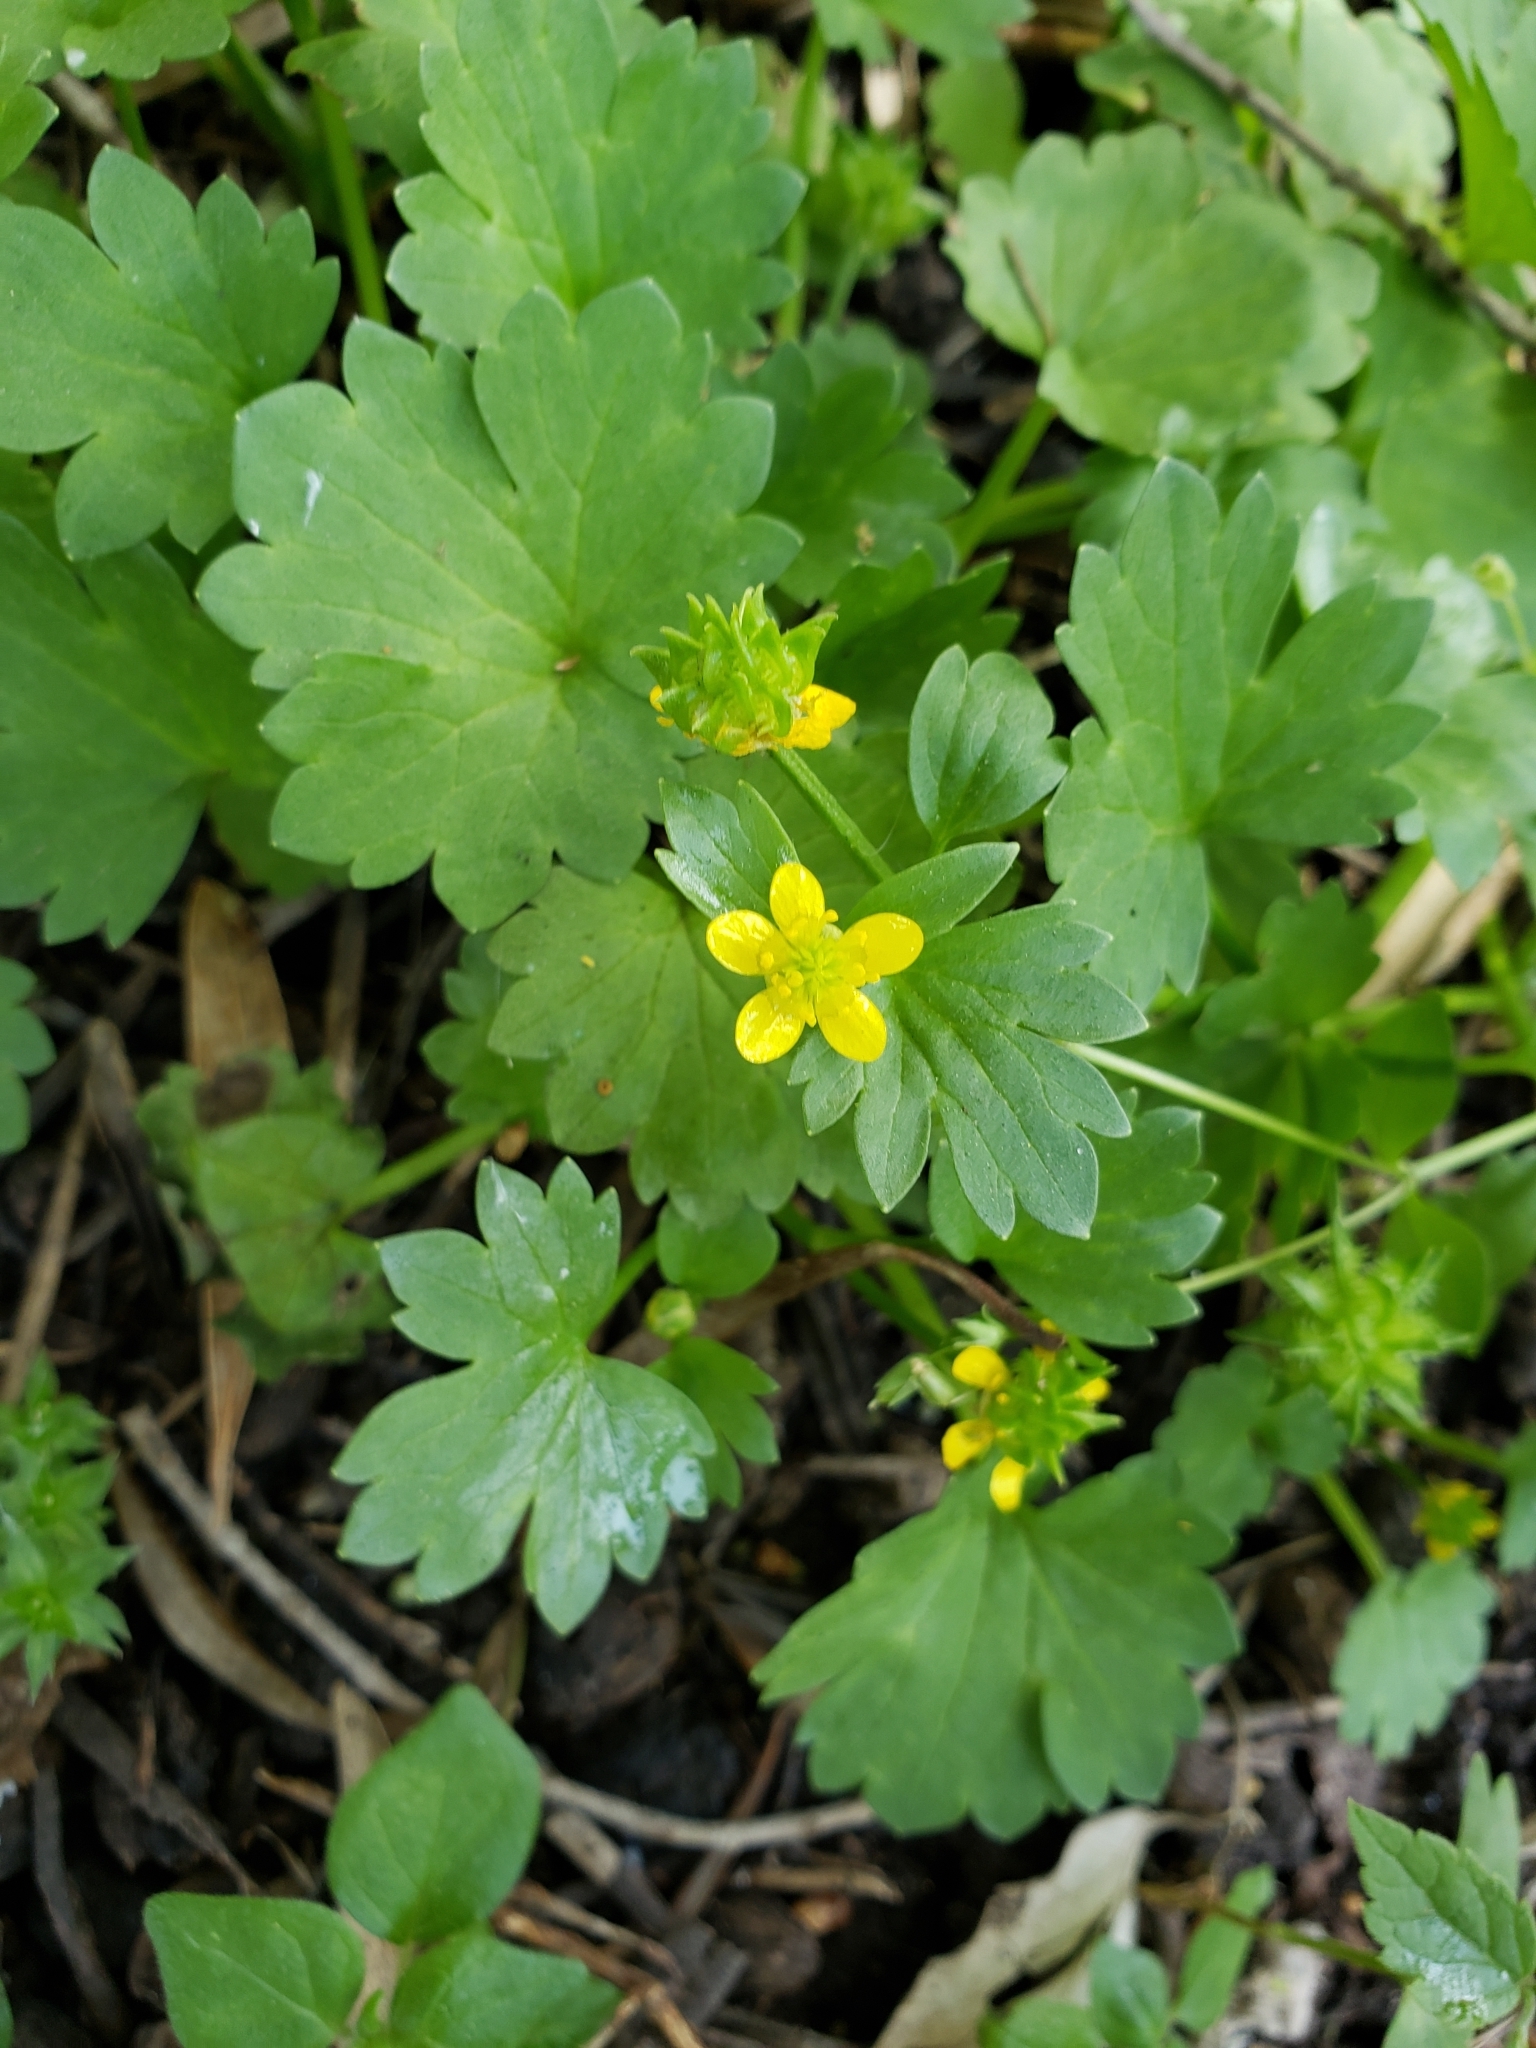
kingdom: Plantae
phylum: Tracheophyta
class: Magnoliopsida
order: Ranunculales
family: Ranunculaceae
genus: Ranunculus
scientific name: Ranunculus muricatus
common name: Rough-fruited buttercup
